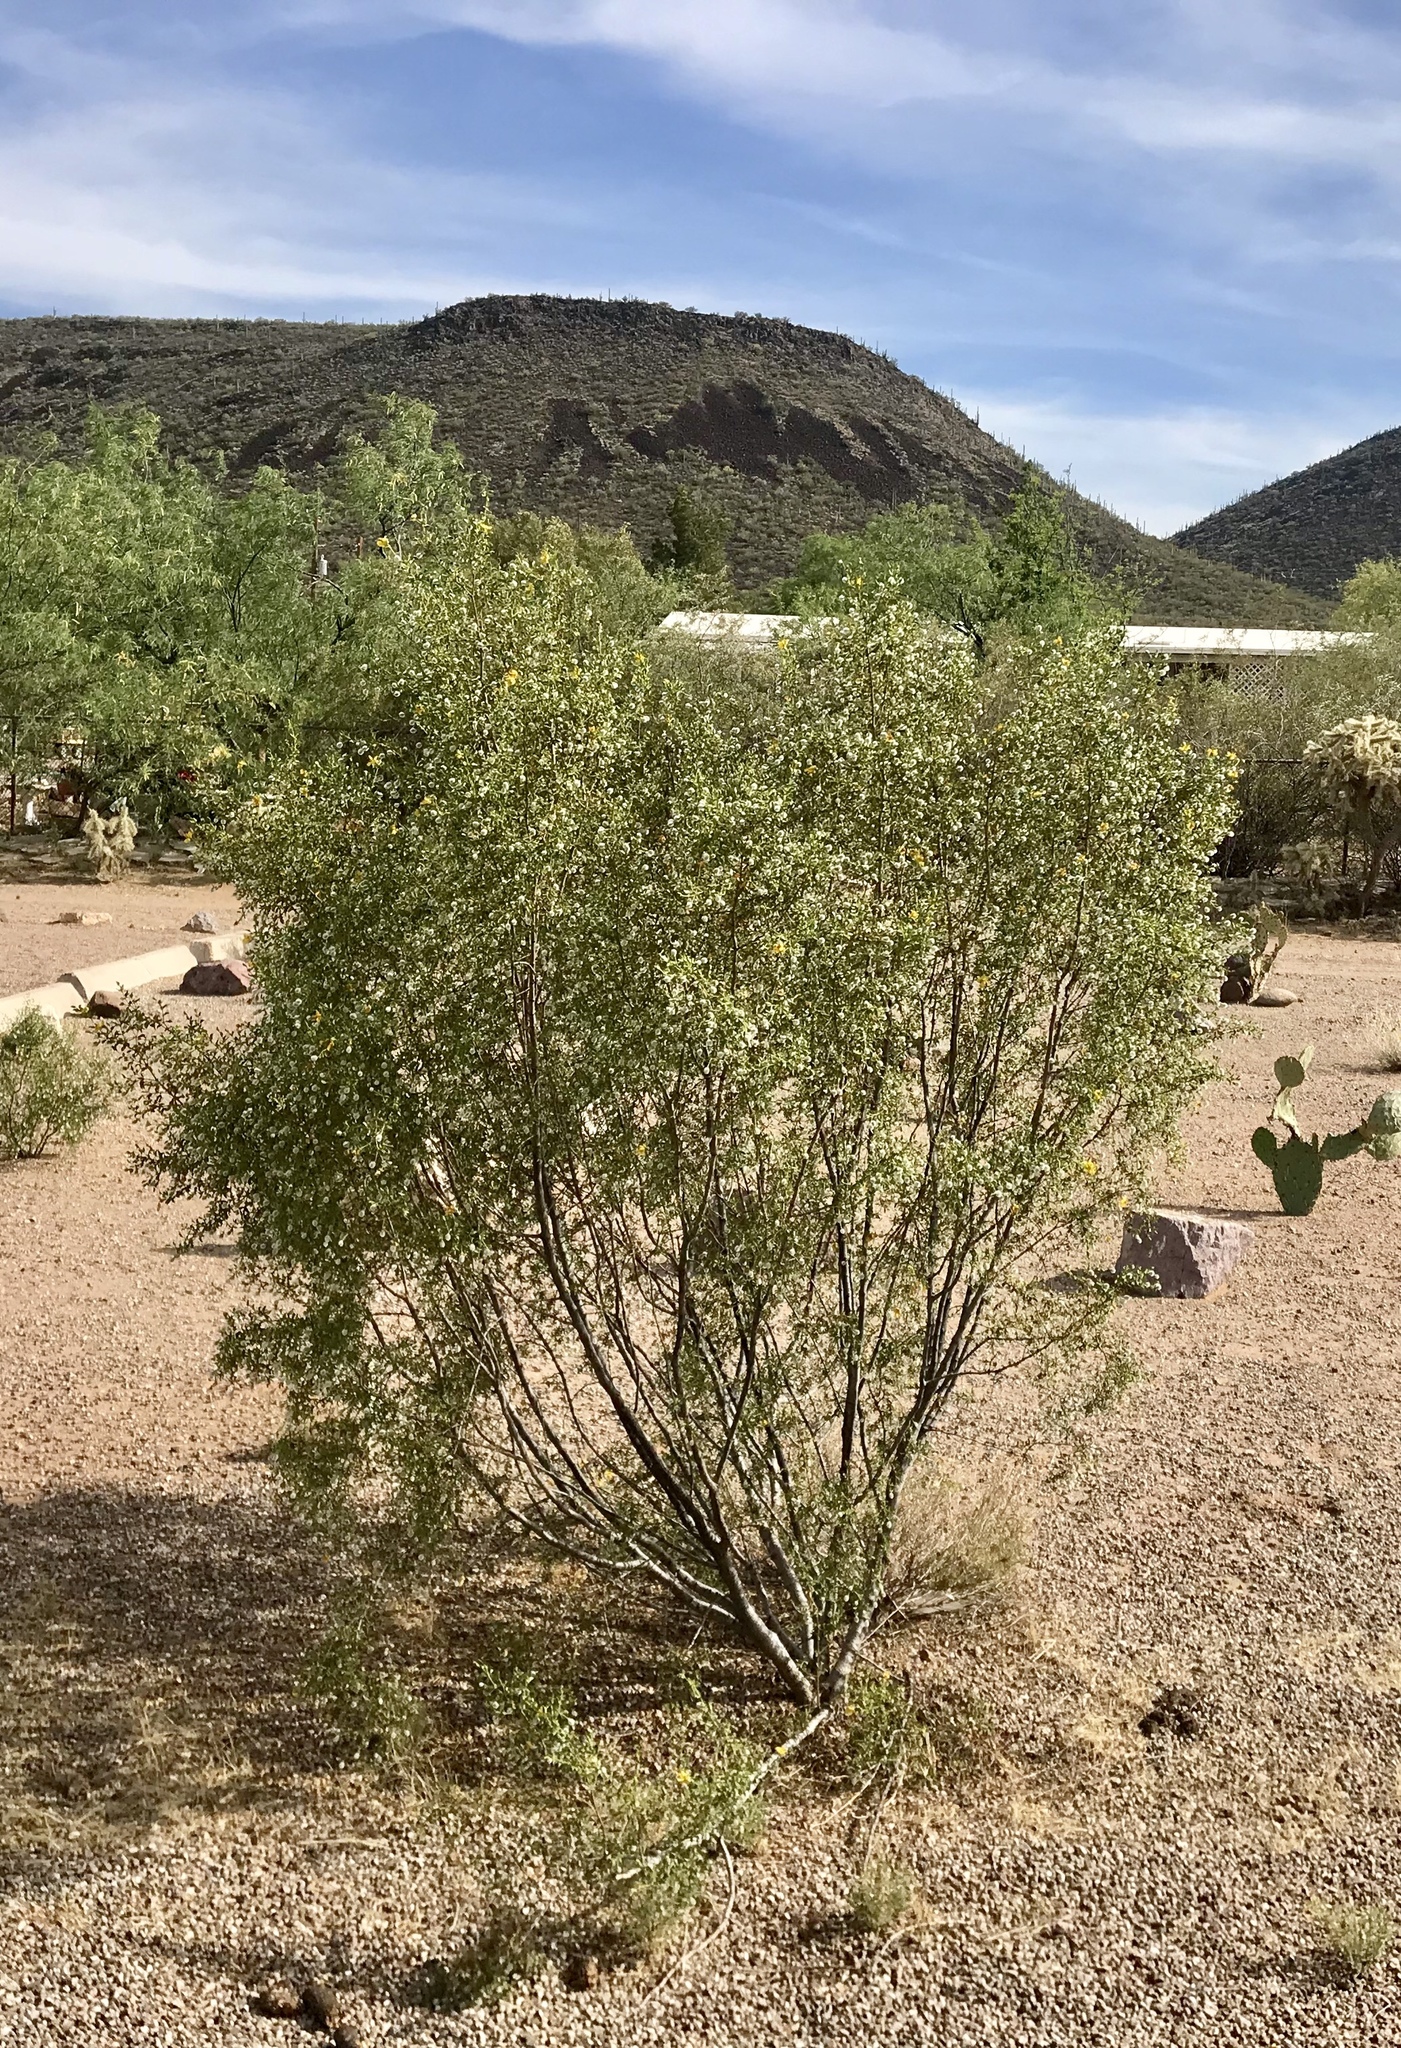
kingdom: Plantae
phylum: Tracheophyta
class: Magnoliopsida
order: Zygophyllales
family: Zygophyllaceae
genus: Larrea
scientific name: Larrea tridentata
